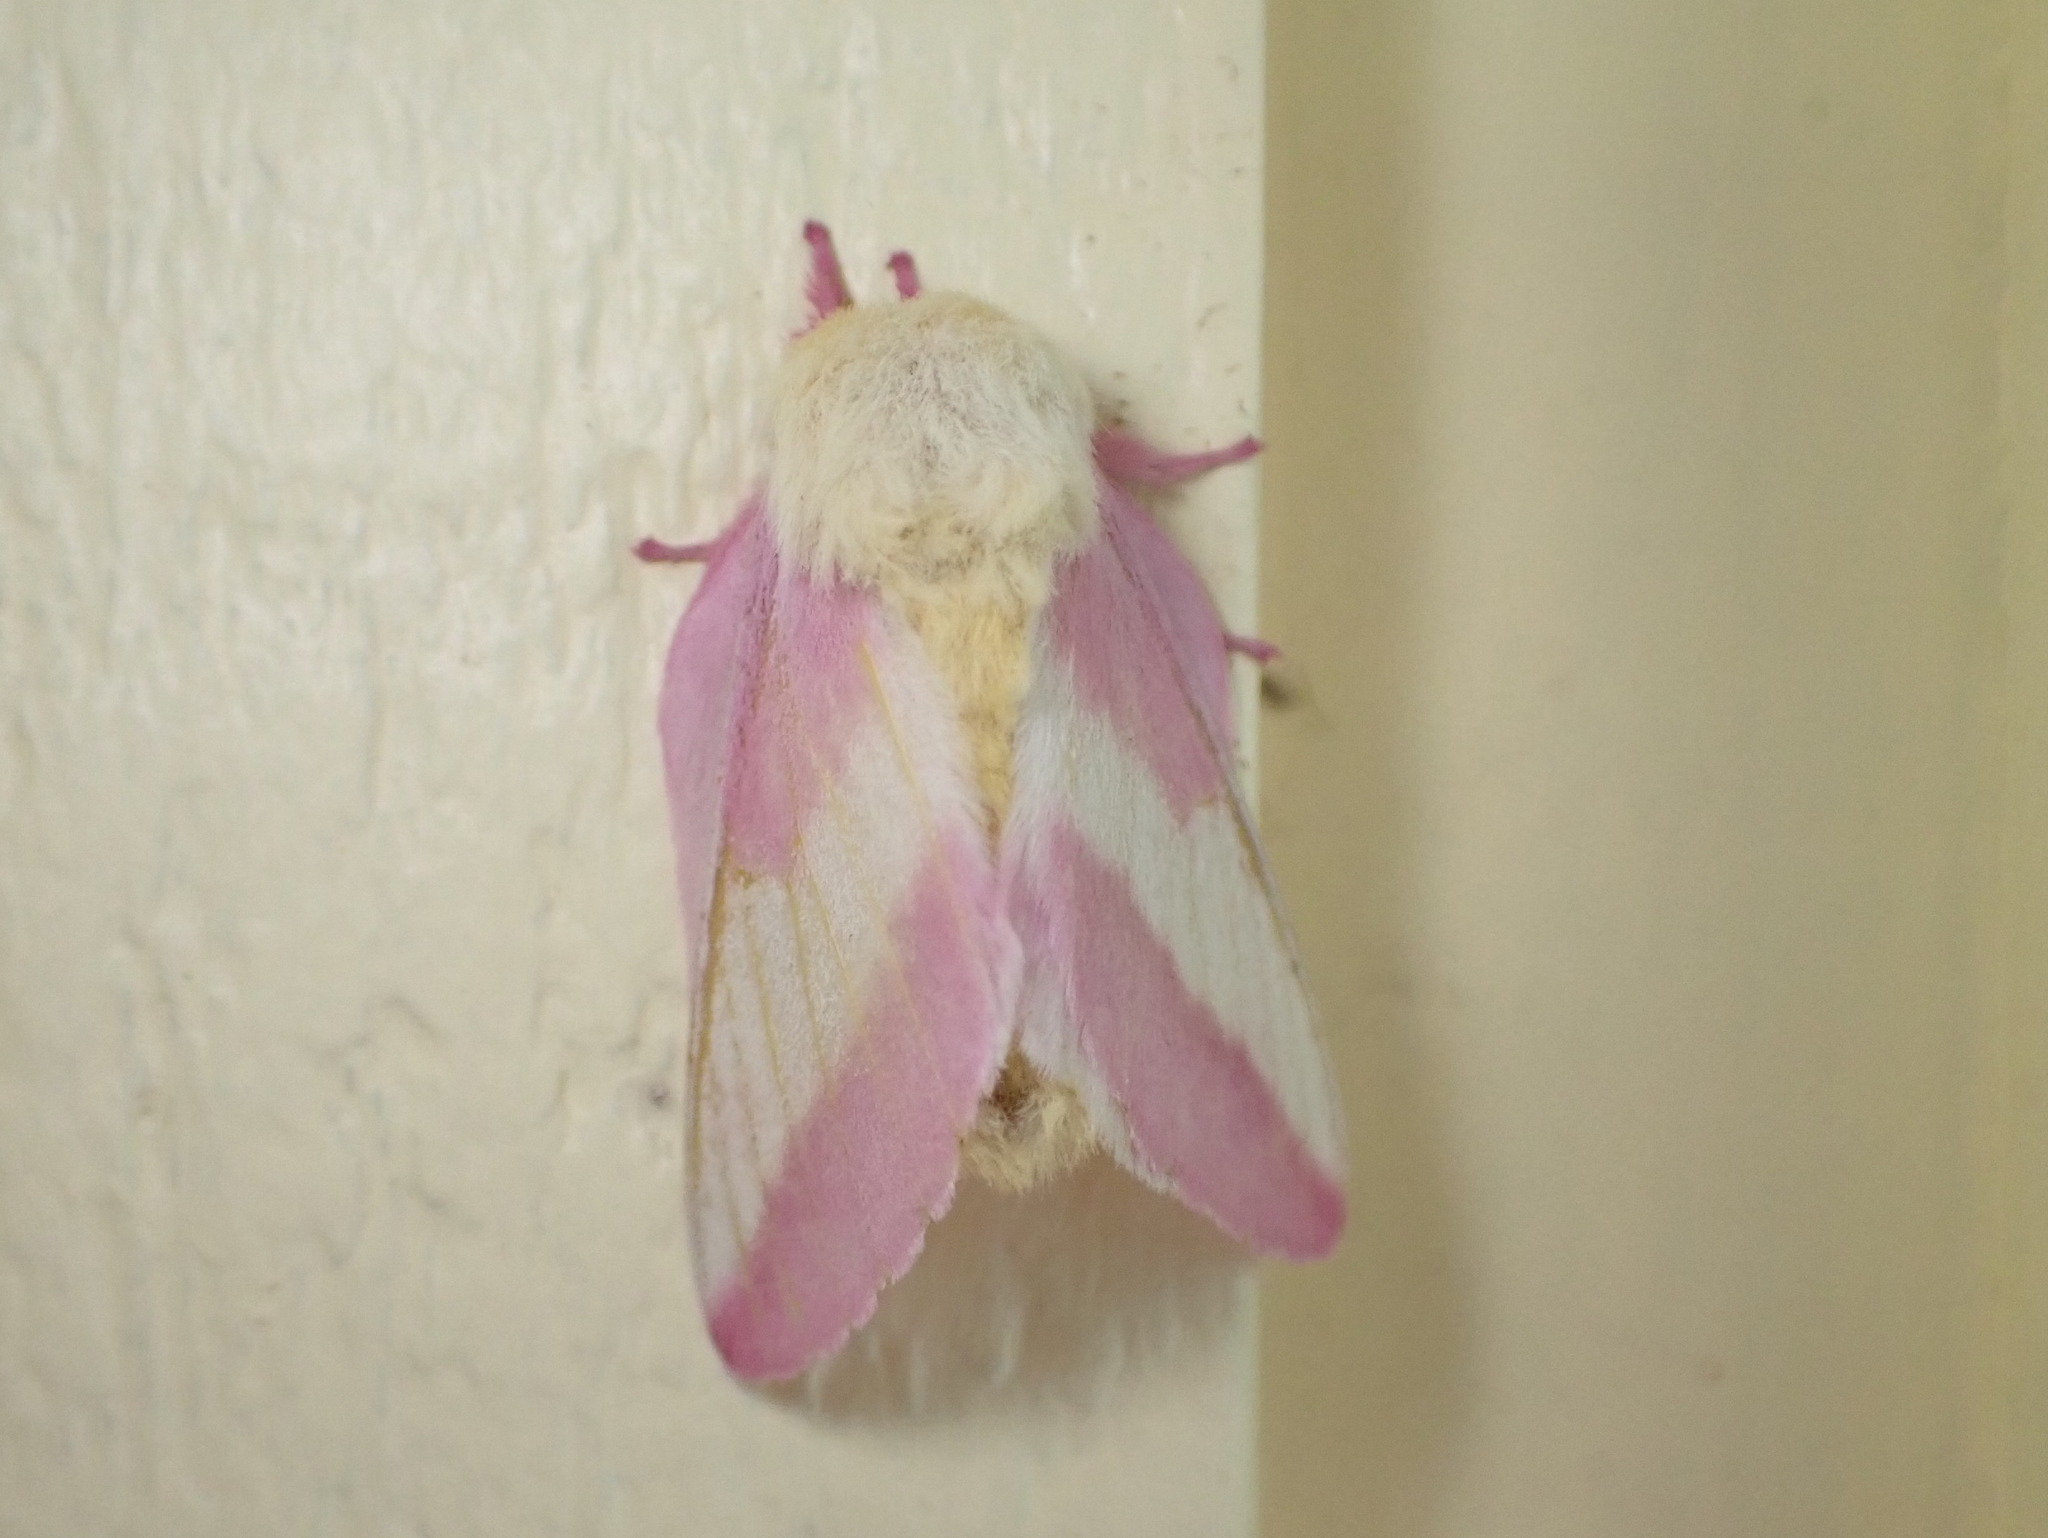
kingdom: Animalia
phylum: Arthropoda
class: Insecta
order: Lepidoptera
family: Saturniidae
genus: Dryocampa
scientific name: Dryocampa rubicunda
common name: Rosy maple moth
